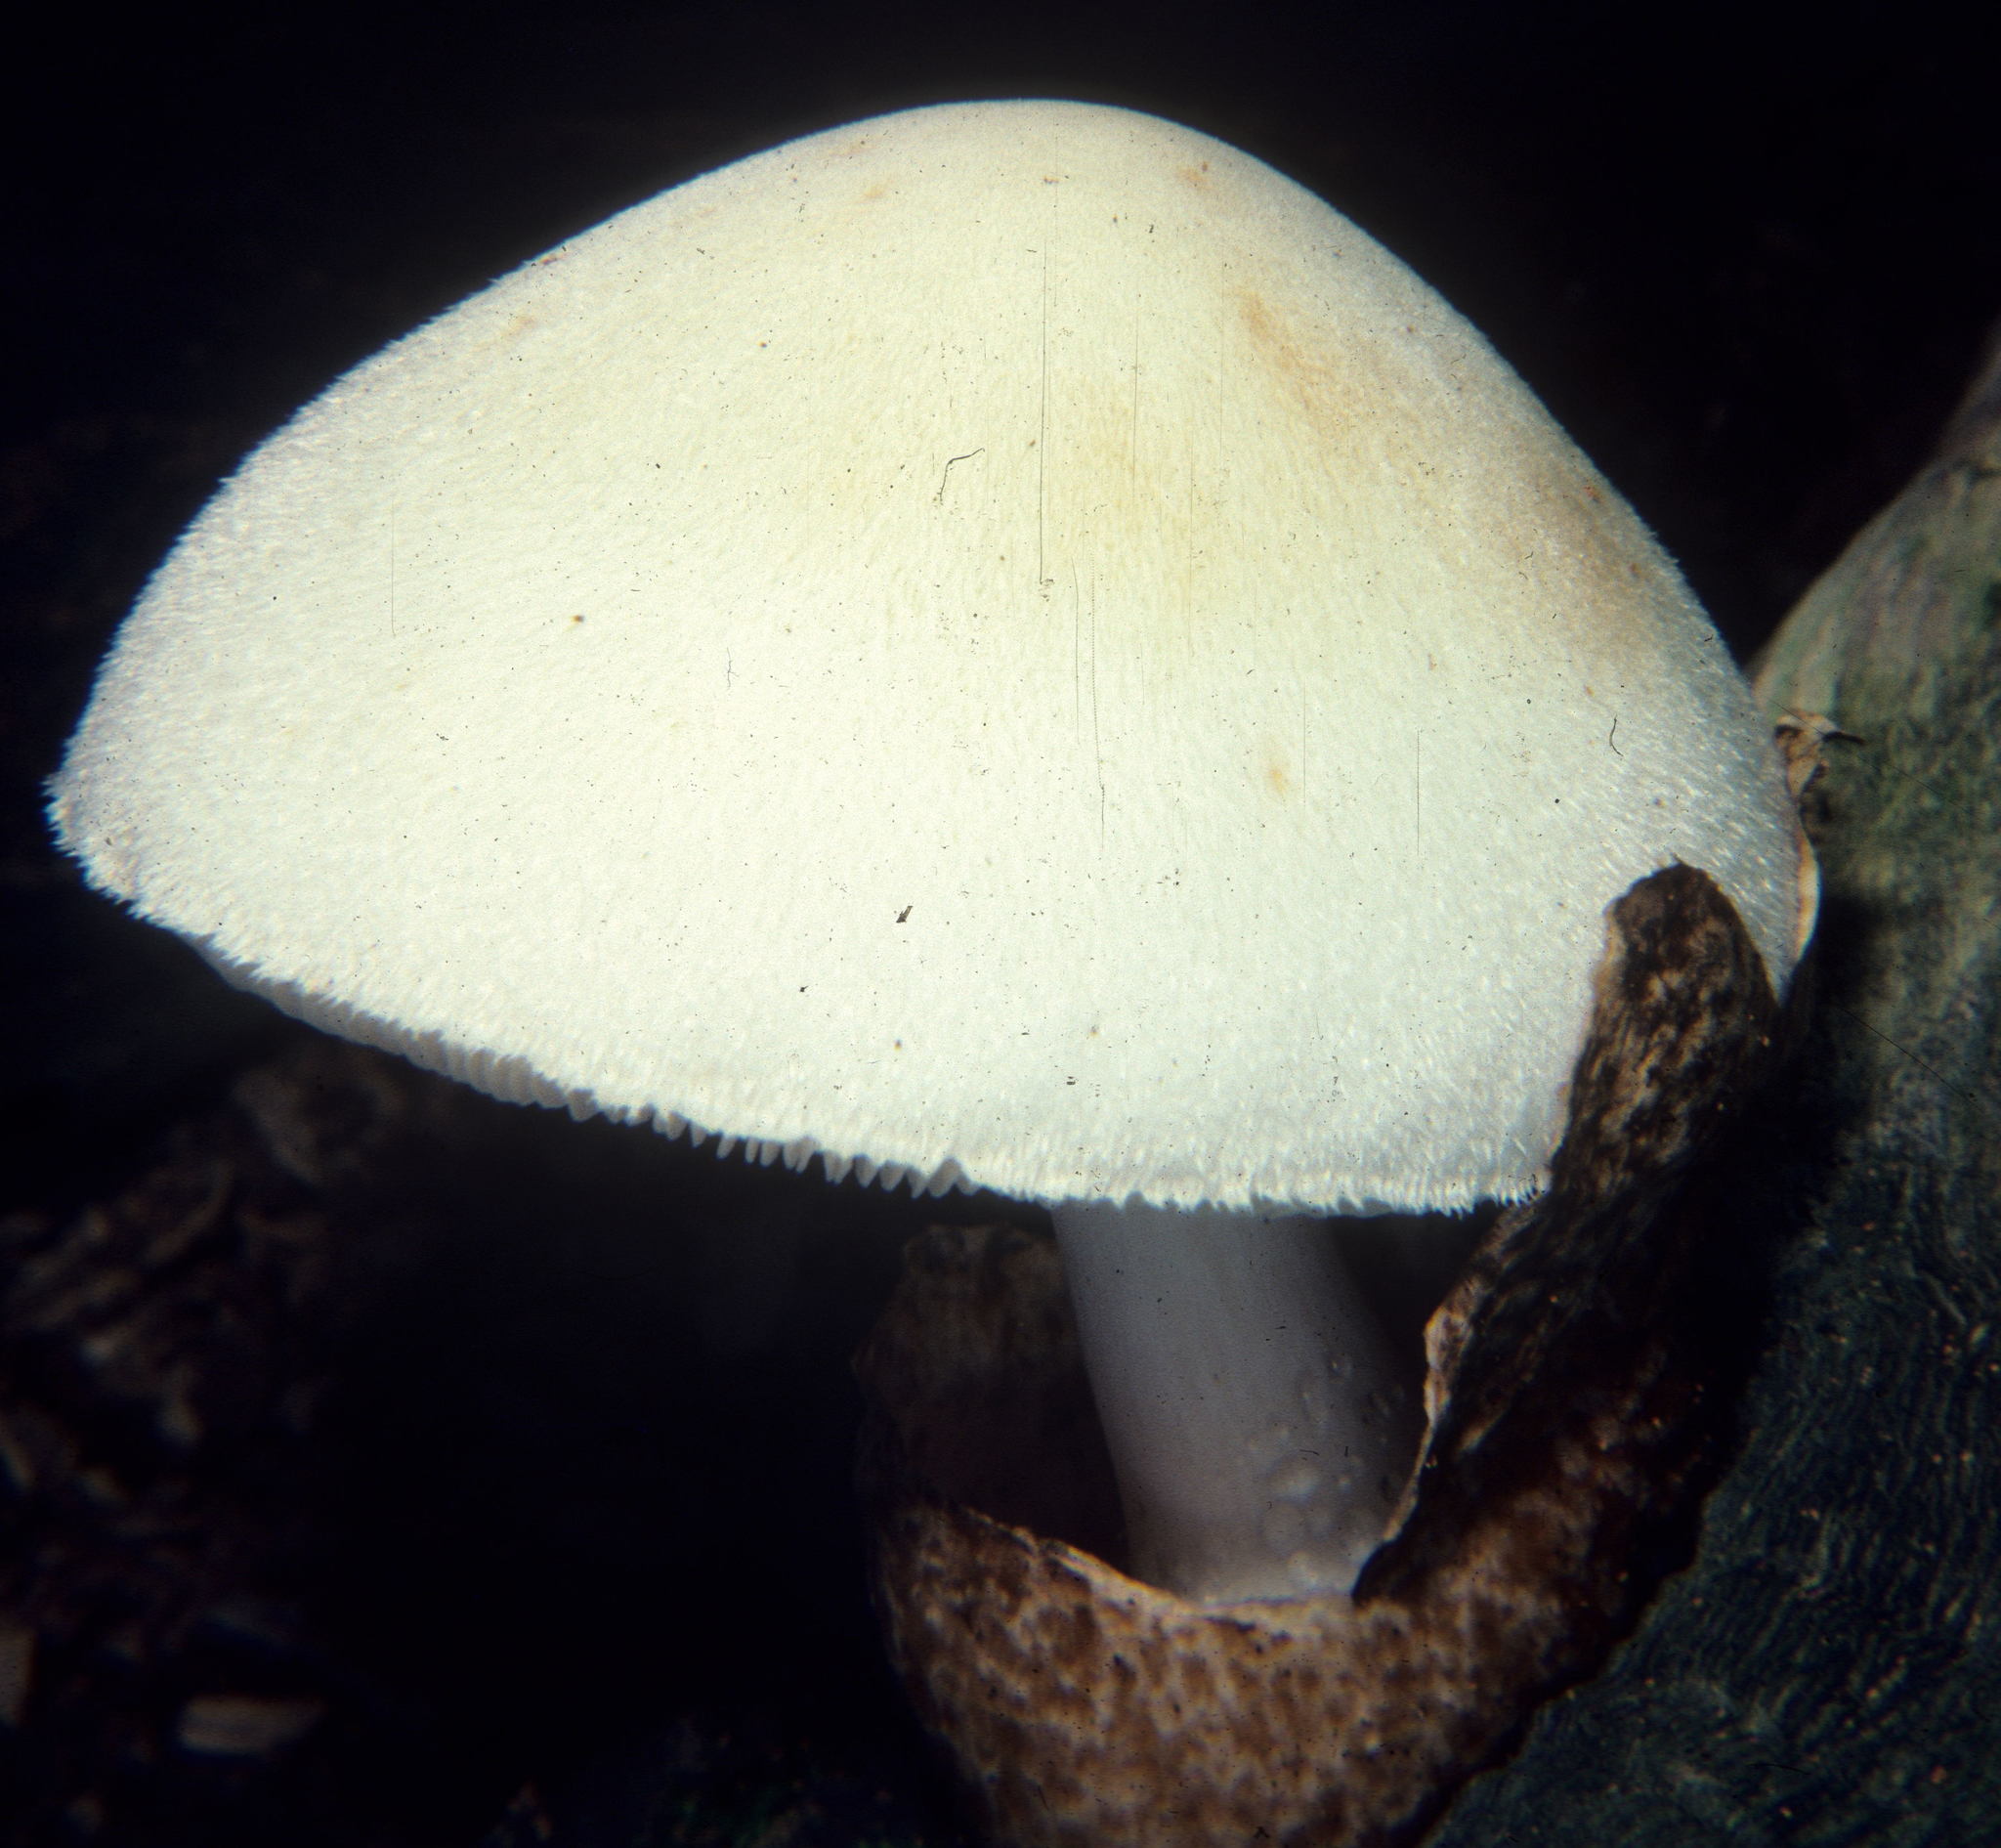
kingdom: Fungi
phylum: Basidiomycota
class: Agaricomycetes
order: Agaricales
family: Pluteaceae
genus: Volvariella
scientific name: Volvariella bombycina
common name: Silky rosegill
